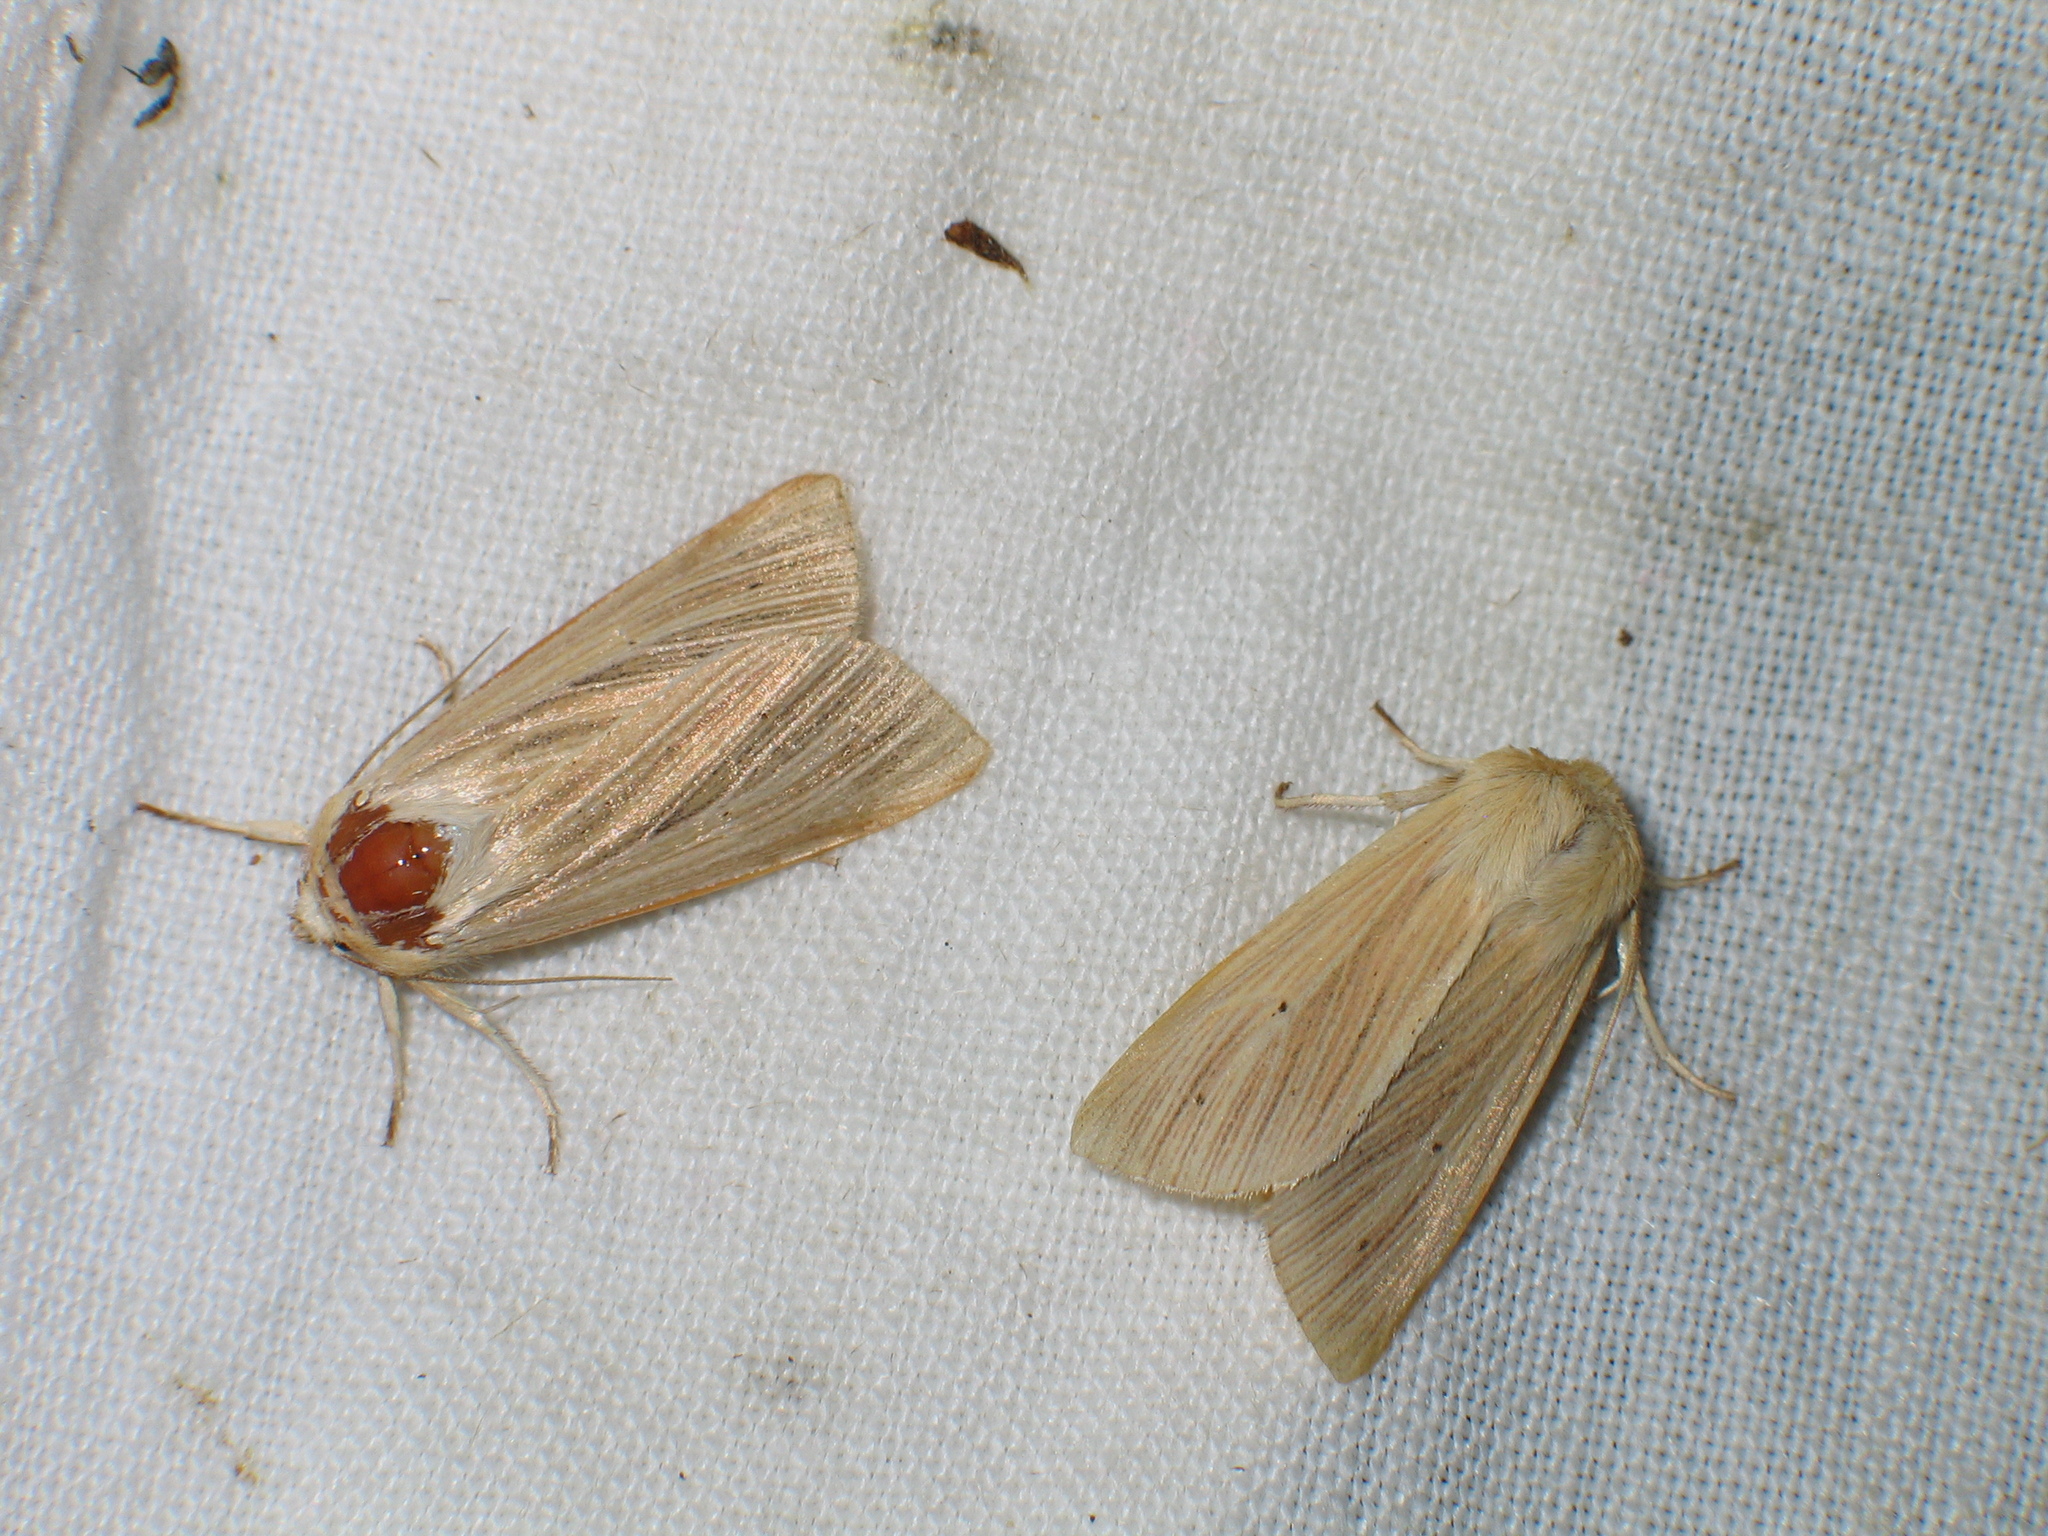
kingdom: Animalia
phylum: Arthropoda
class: Insecta
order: Lepidoptera
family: Noctuidae
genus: Mythimna
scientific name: Mythimna pallens
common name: Common wainscot
